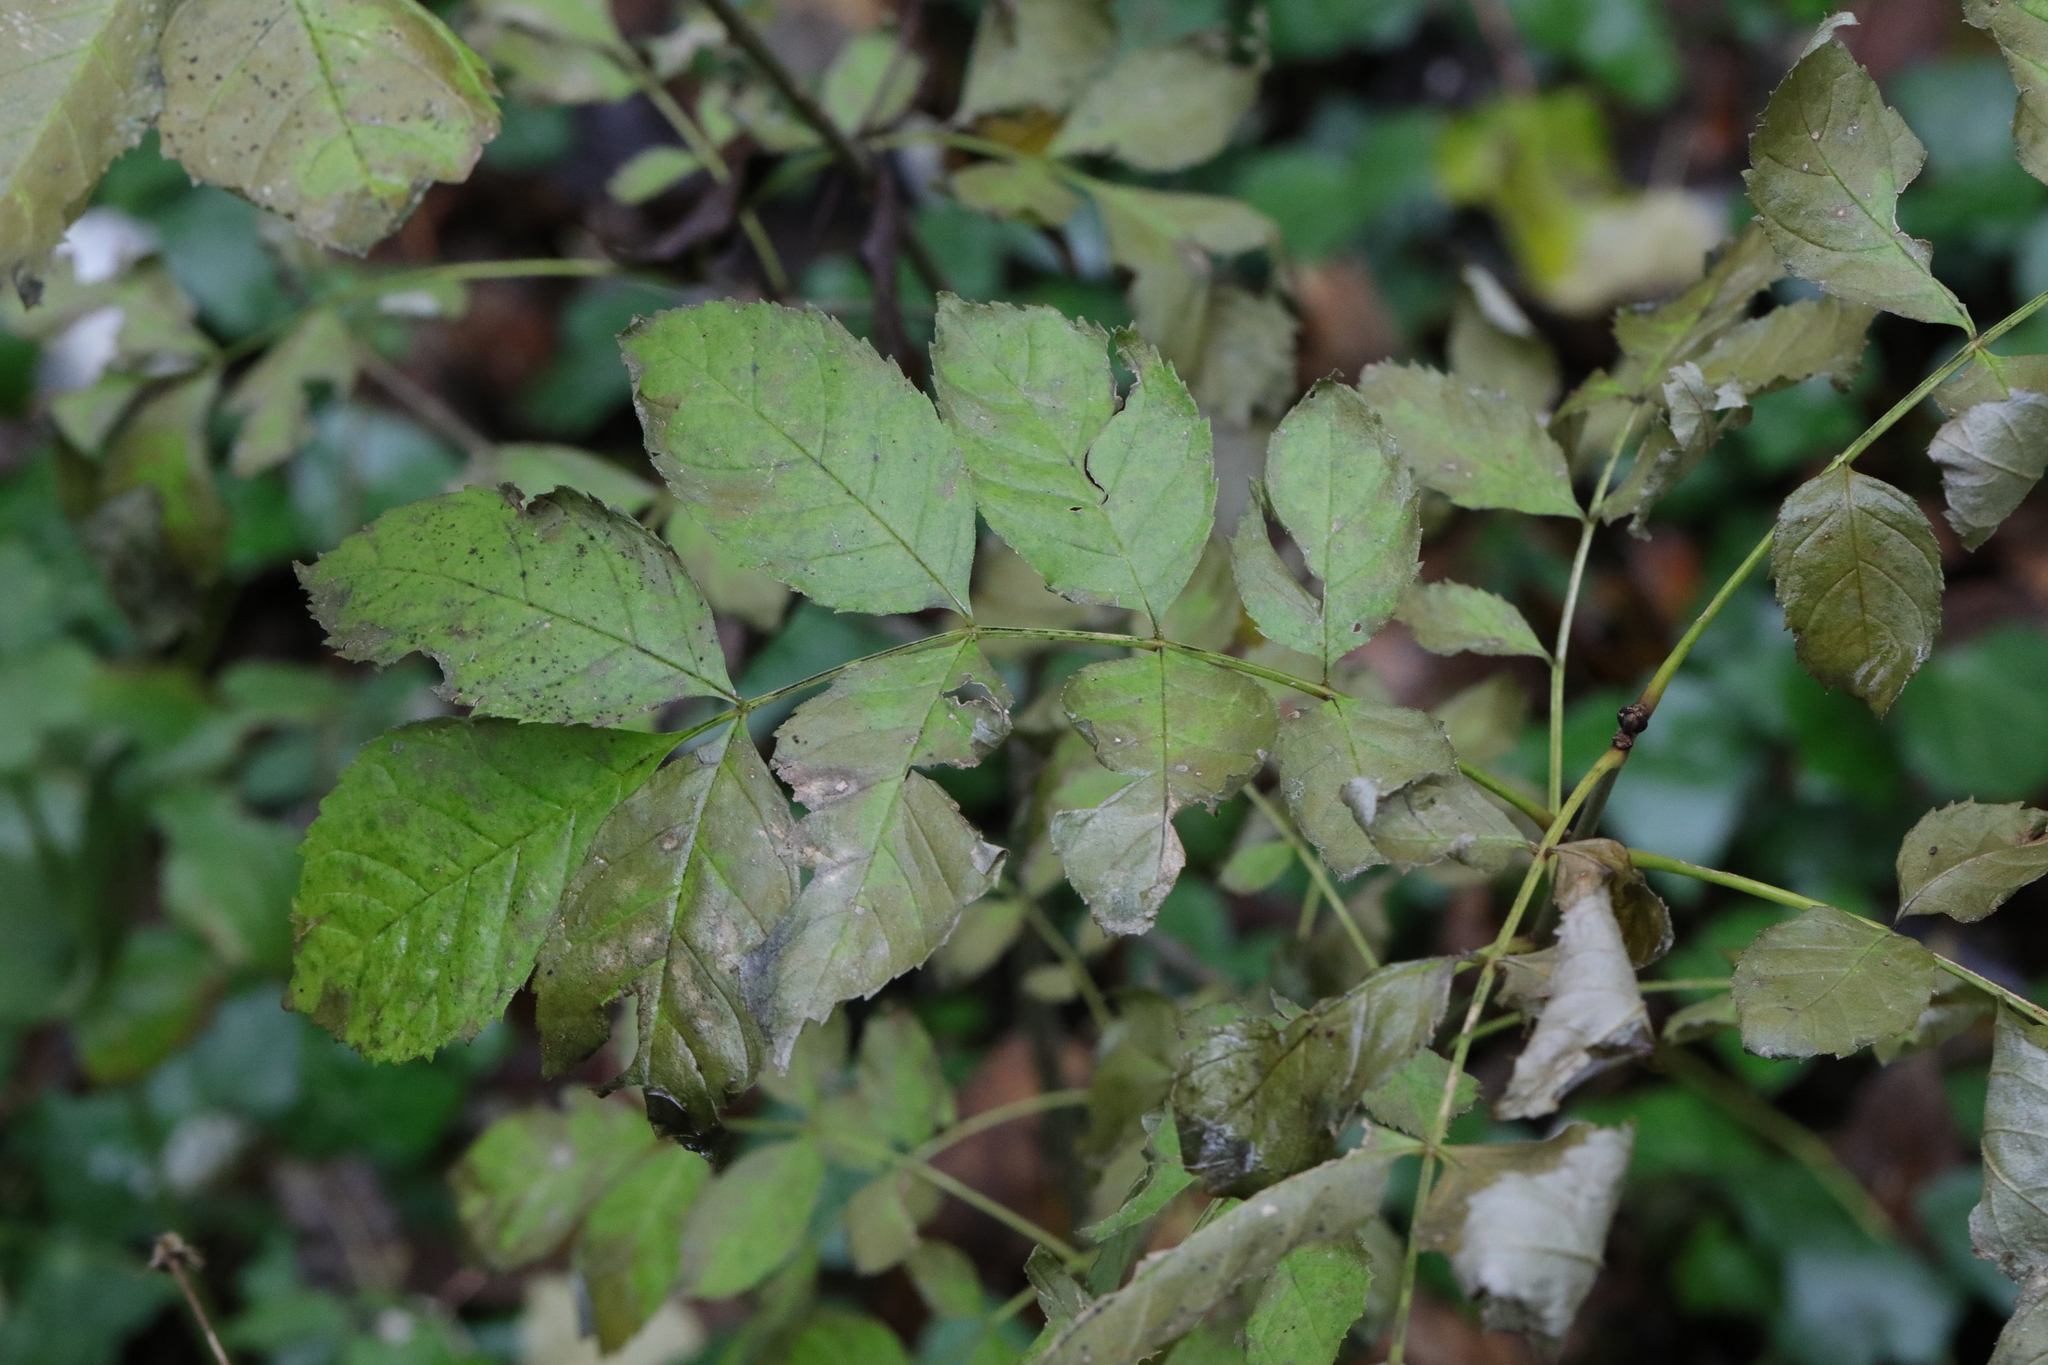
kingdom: Plantae
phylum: Tracheophyta
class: Magnoliopsida
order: Lamiales
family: Oleaceae
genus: Fraxinus
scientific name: Fraxinus excelsior
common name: European ash
